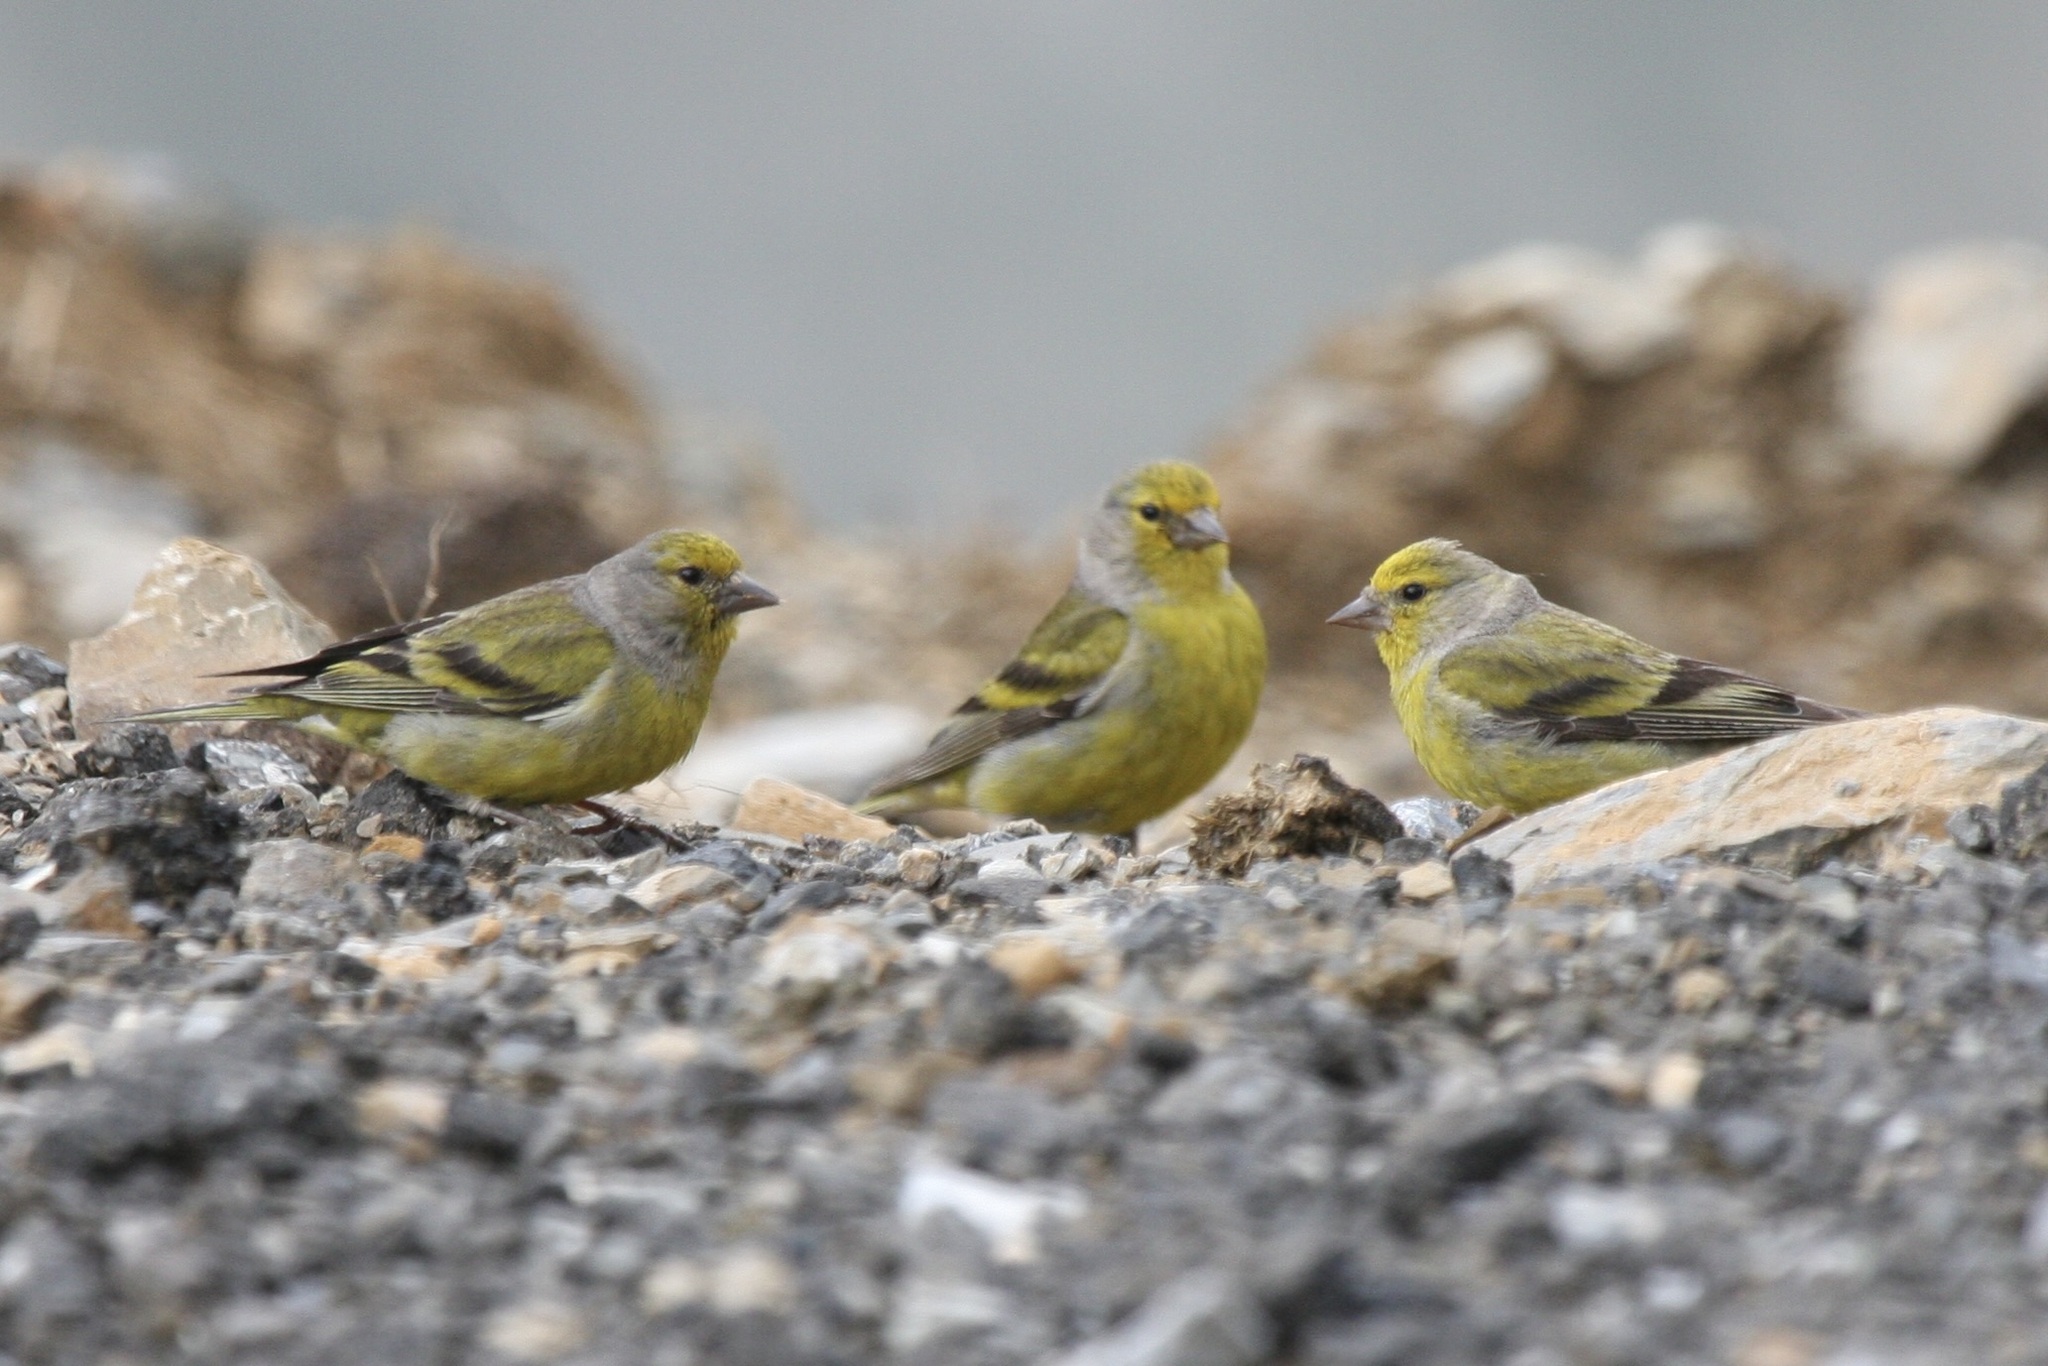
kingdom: Animalia
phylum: Chordata
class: Aves
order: Passeriformes
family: Fringillidae
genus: Carduelis
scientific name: Carduelis citrinella
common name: Citril finch
